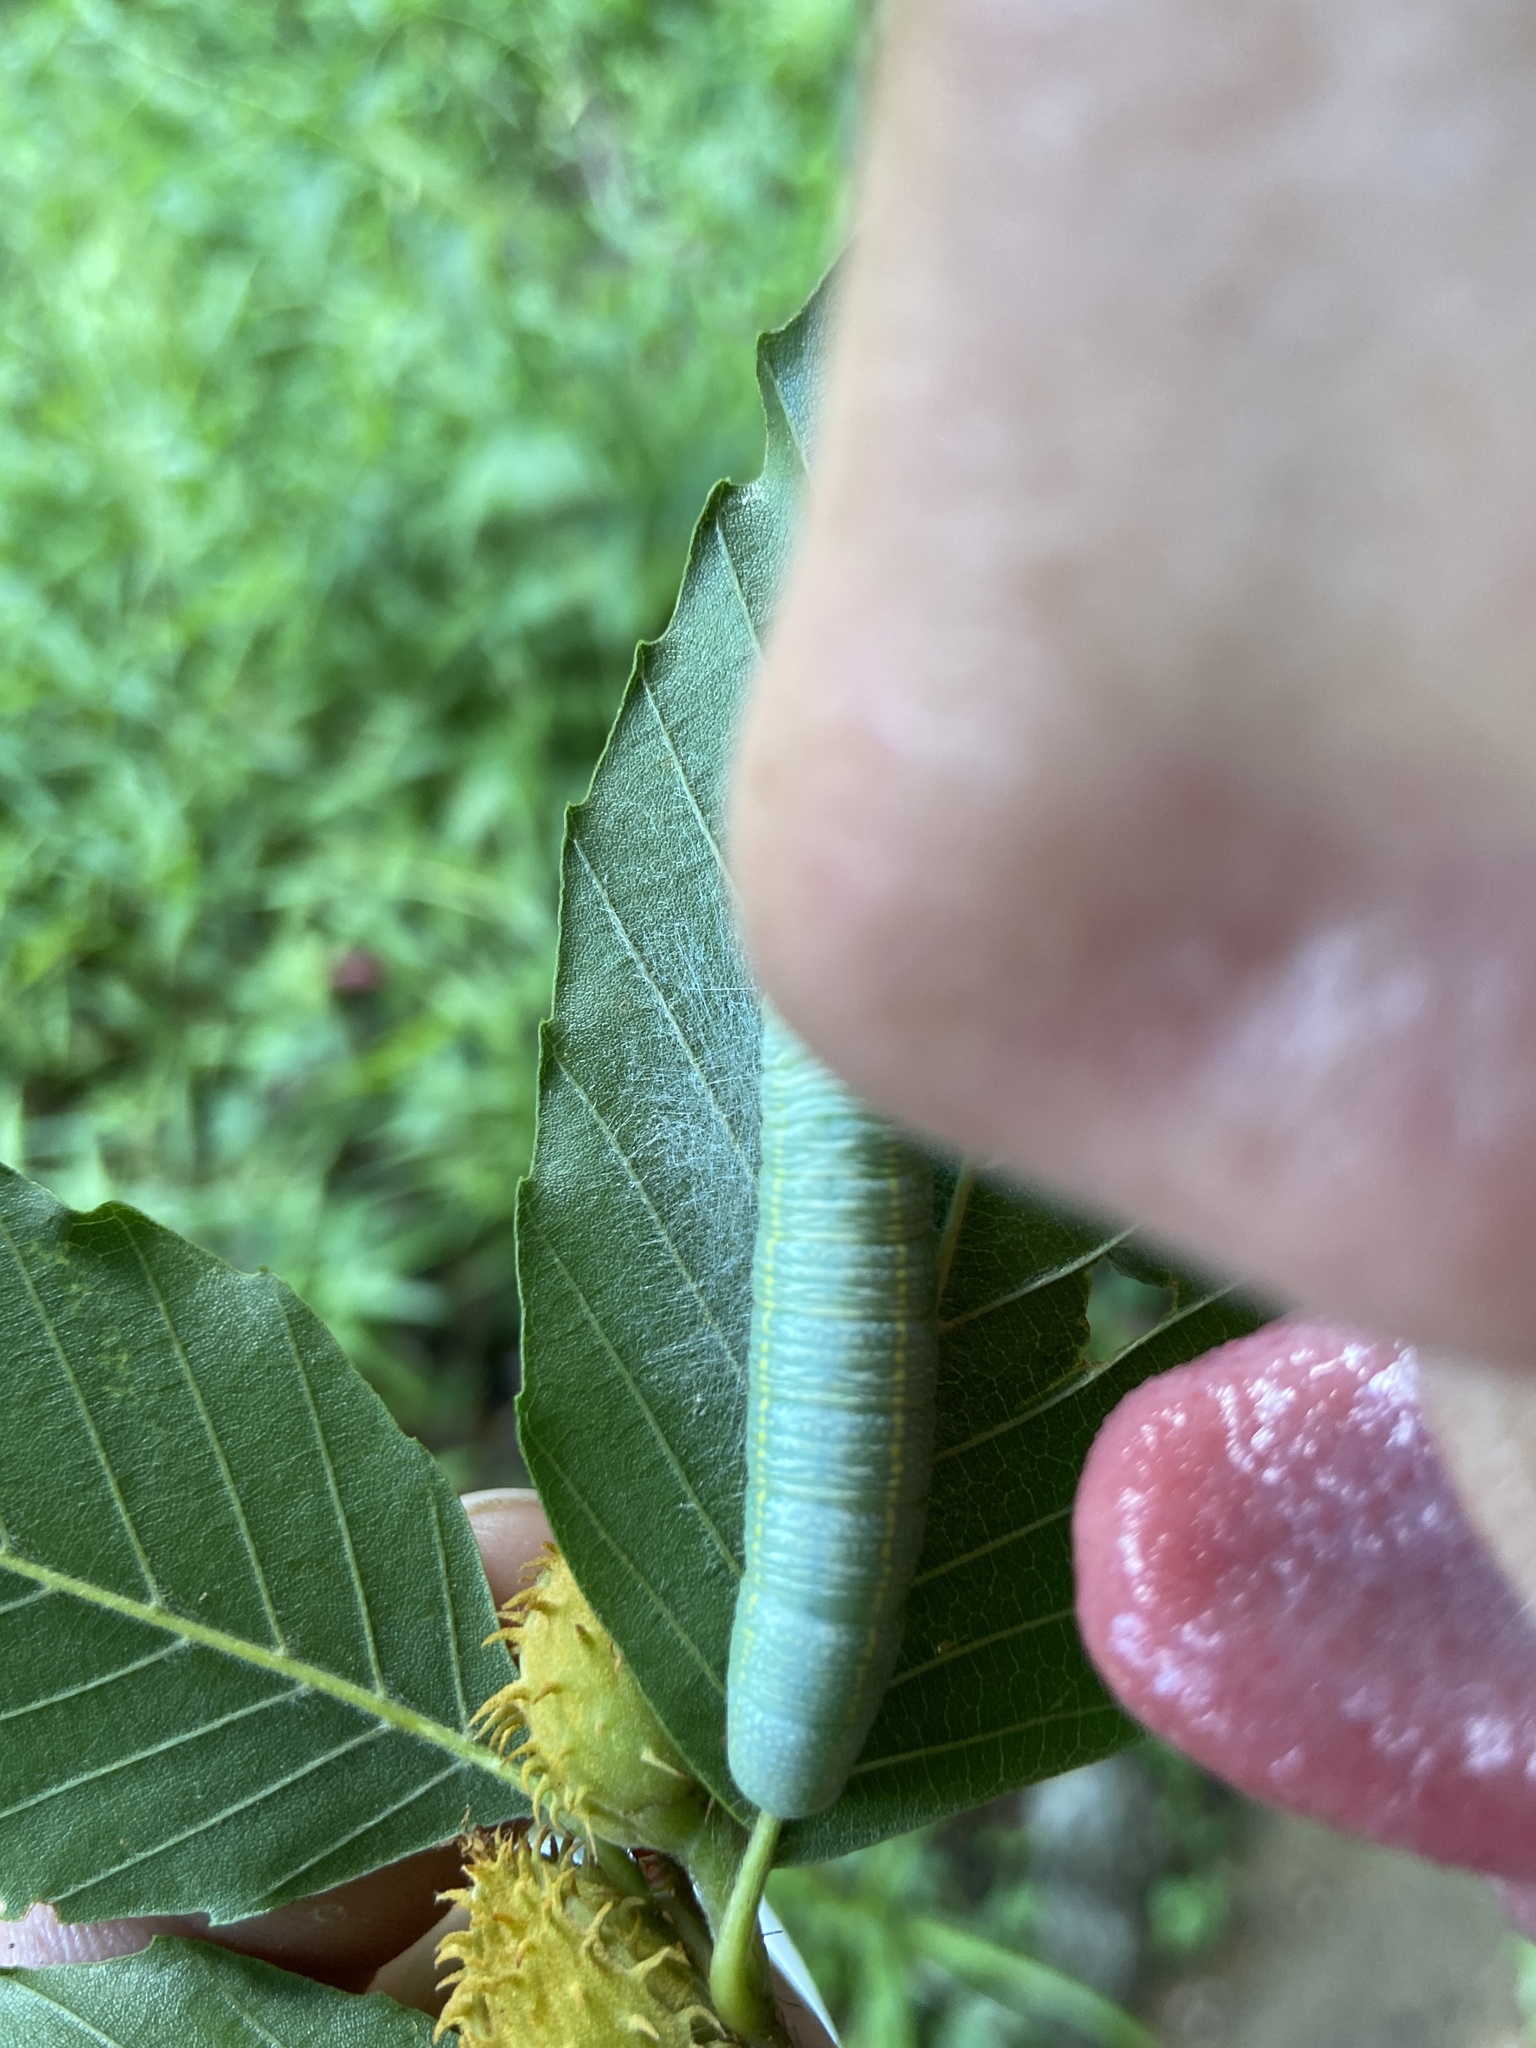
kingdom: Animalia
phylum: Arthropoda
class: Insecta
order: Lepidoptera
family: Notodontidae
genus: Nadata
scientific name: Nadata gibbosa
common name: White-dotted prominent
